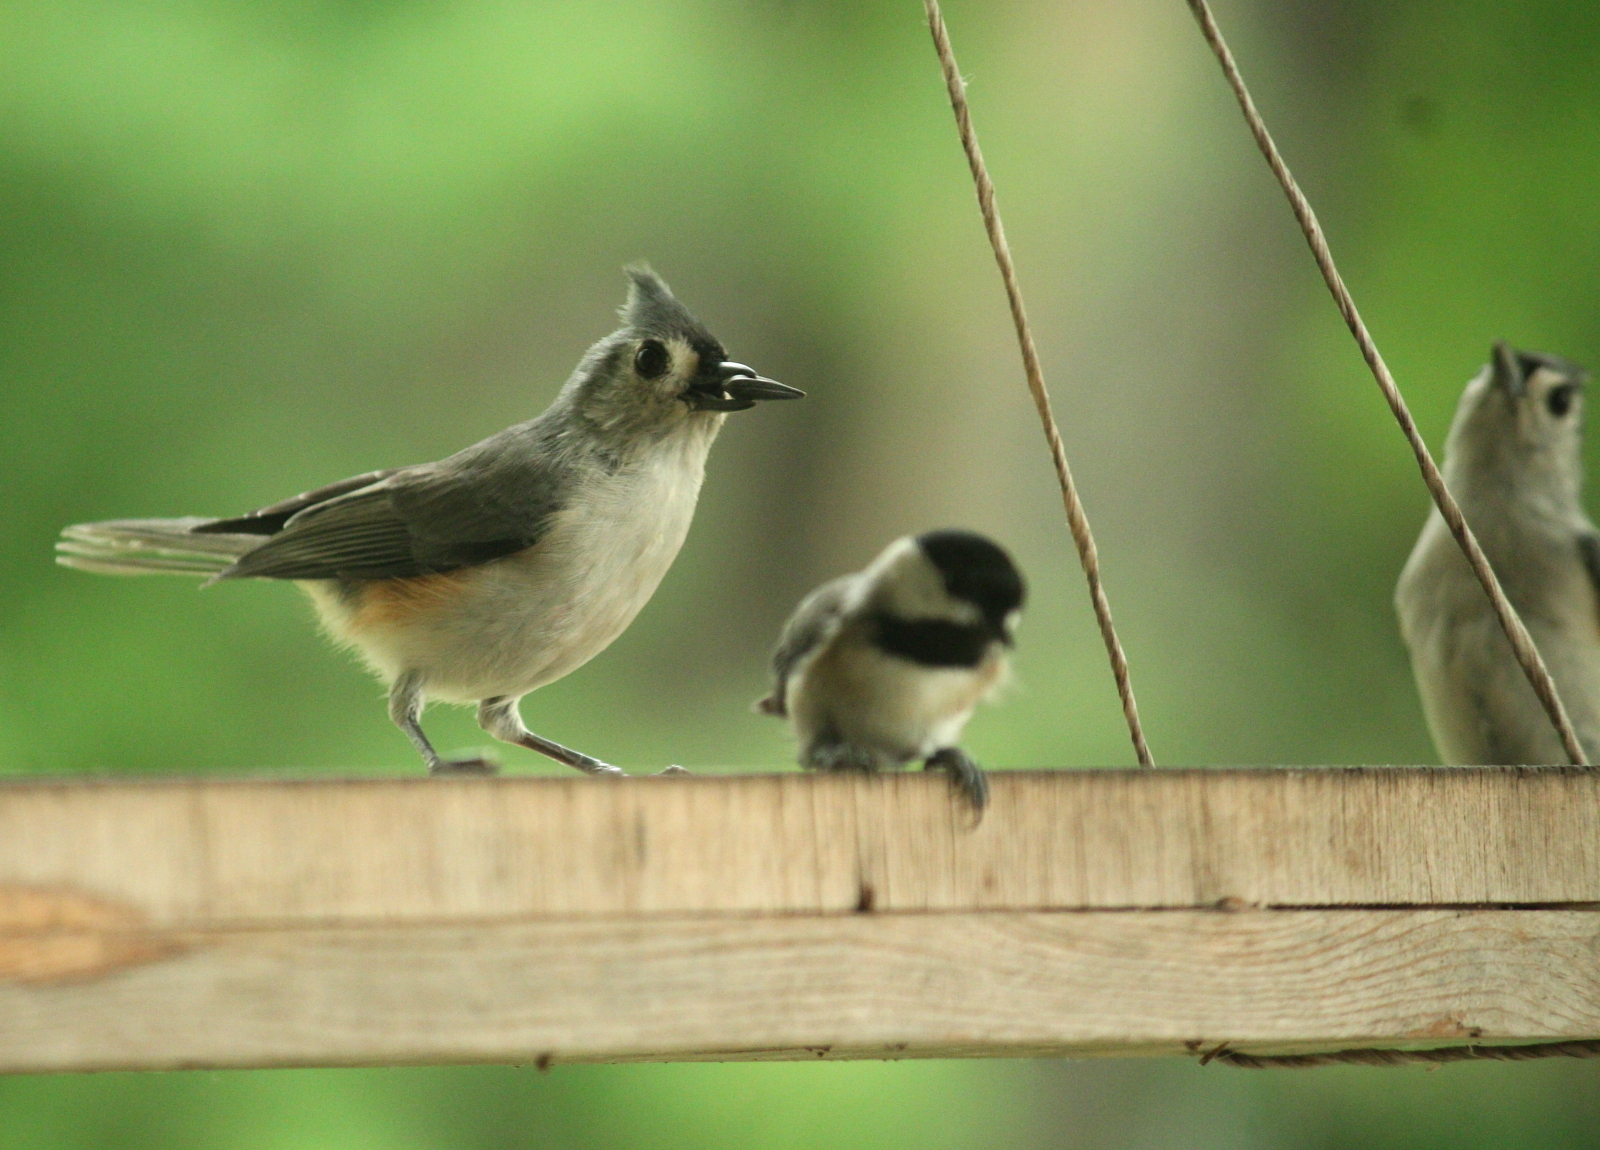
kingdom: Animalia
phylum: Chordata
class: Aves
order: Passeriformes
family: Paridae
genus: Baeolophus
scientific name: Baeolophus bicolor
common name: Tufted titmouse
